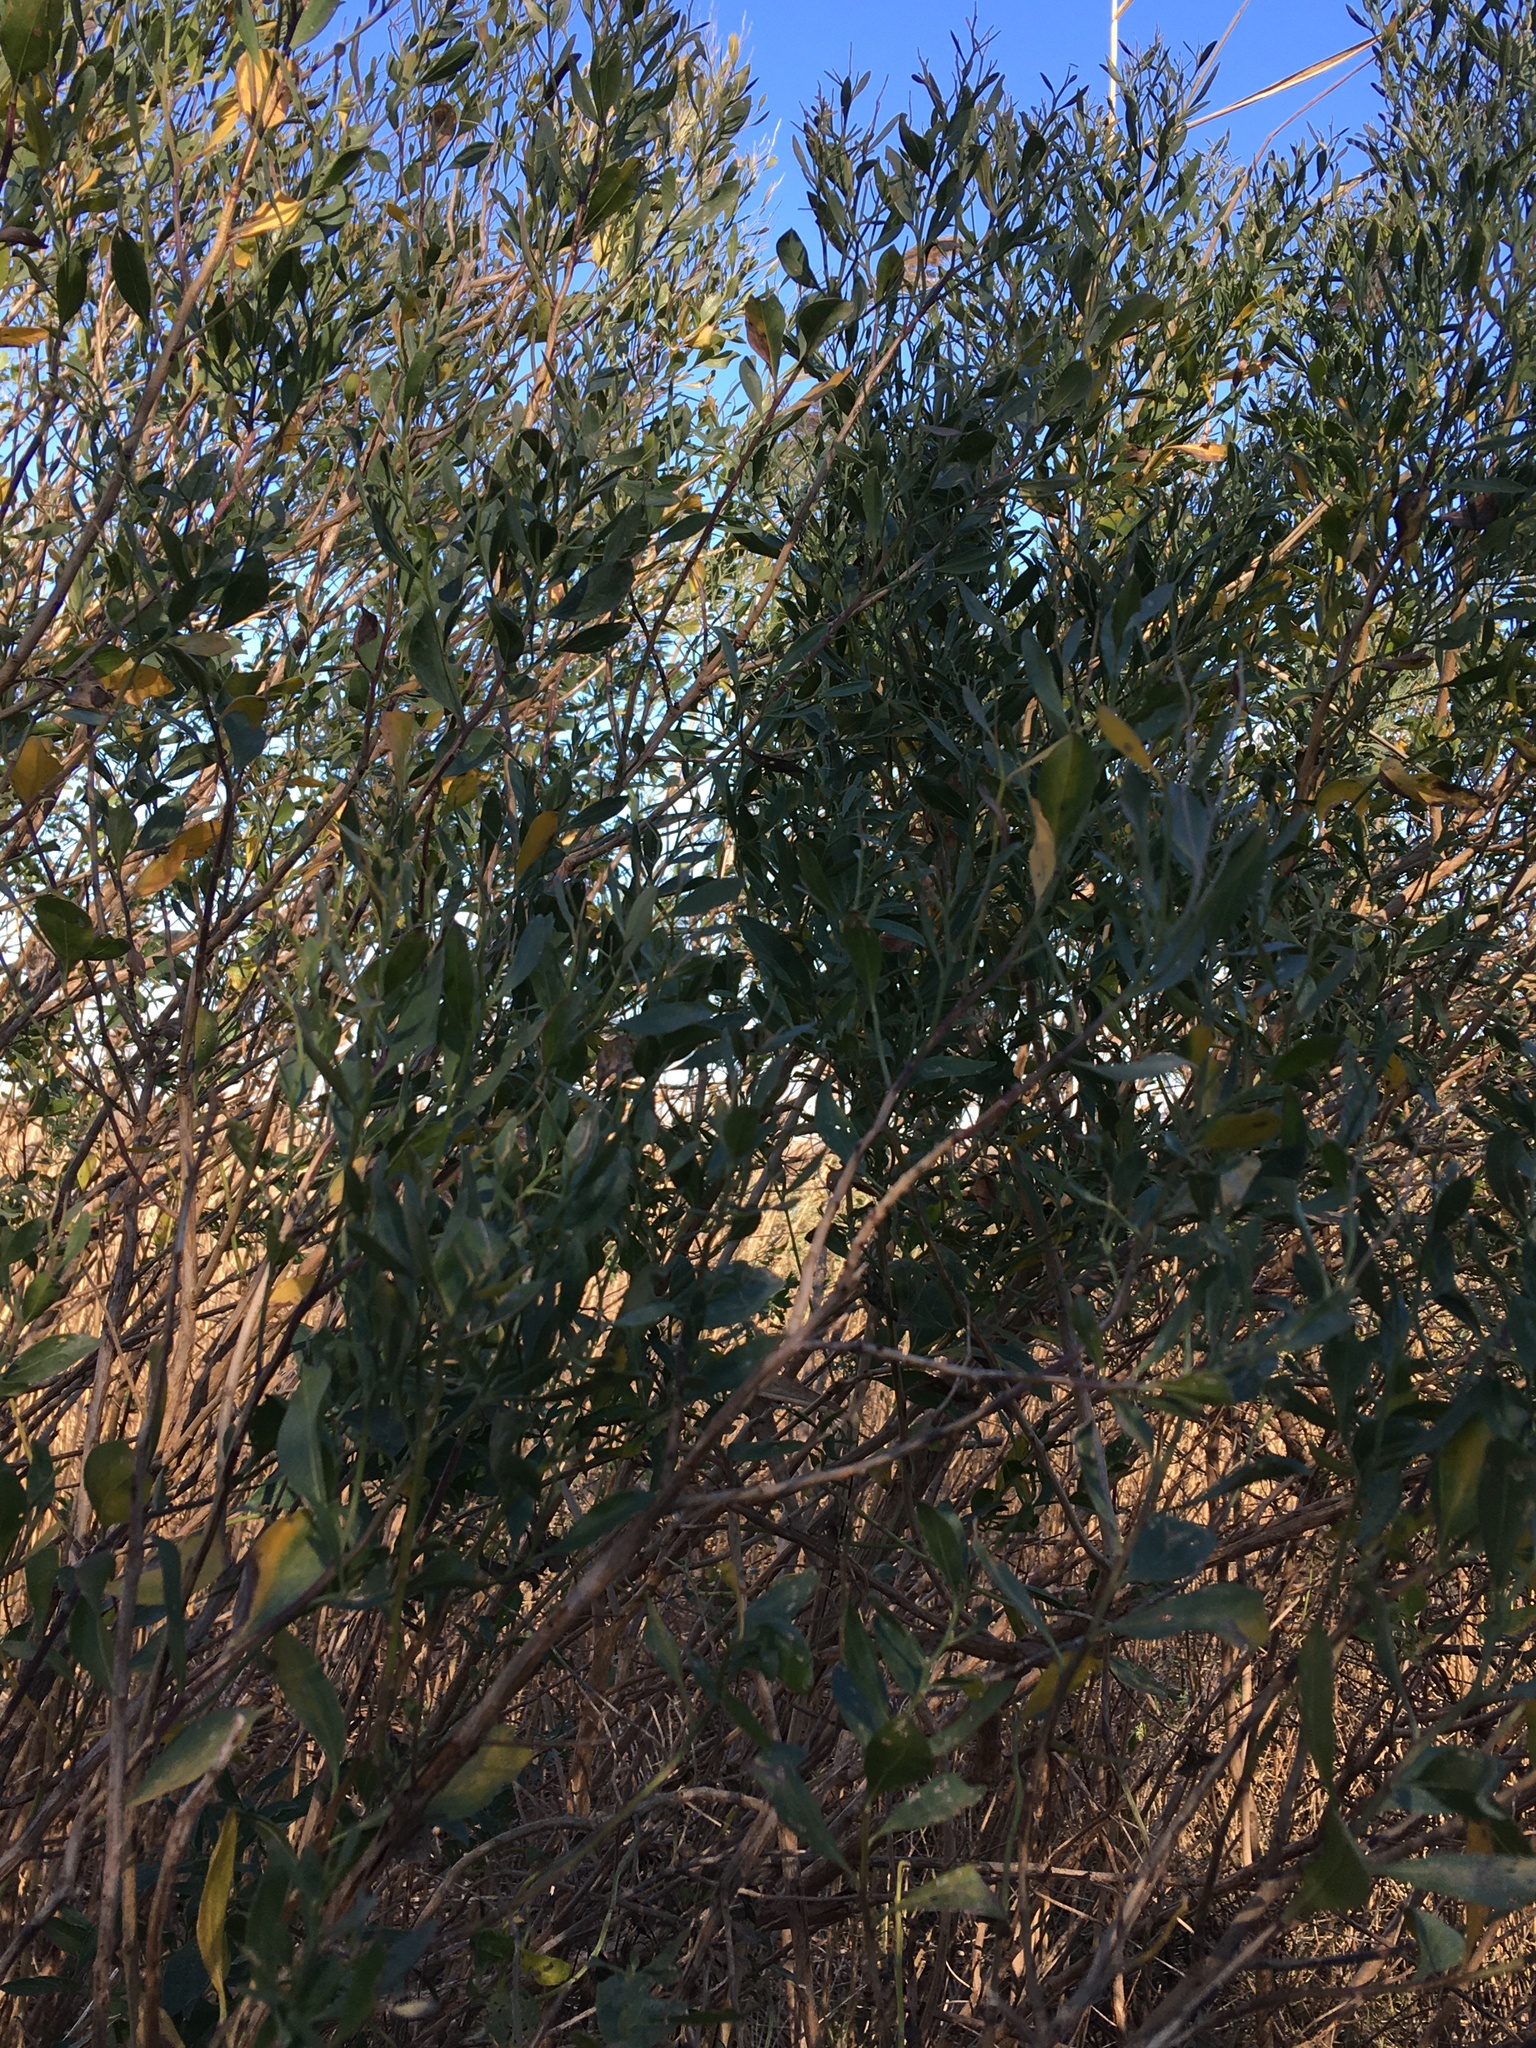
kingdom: Plantae
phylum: Tracheophyta
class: Magnoliopsida
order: Asterales
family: Asteraceae
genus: Baccharis
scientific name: Baccharis halimifolia
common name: Eastern baccharis
